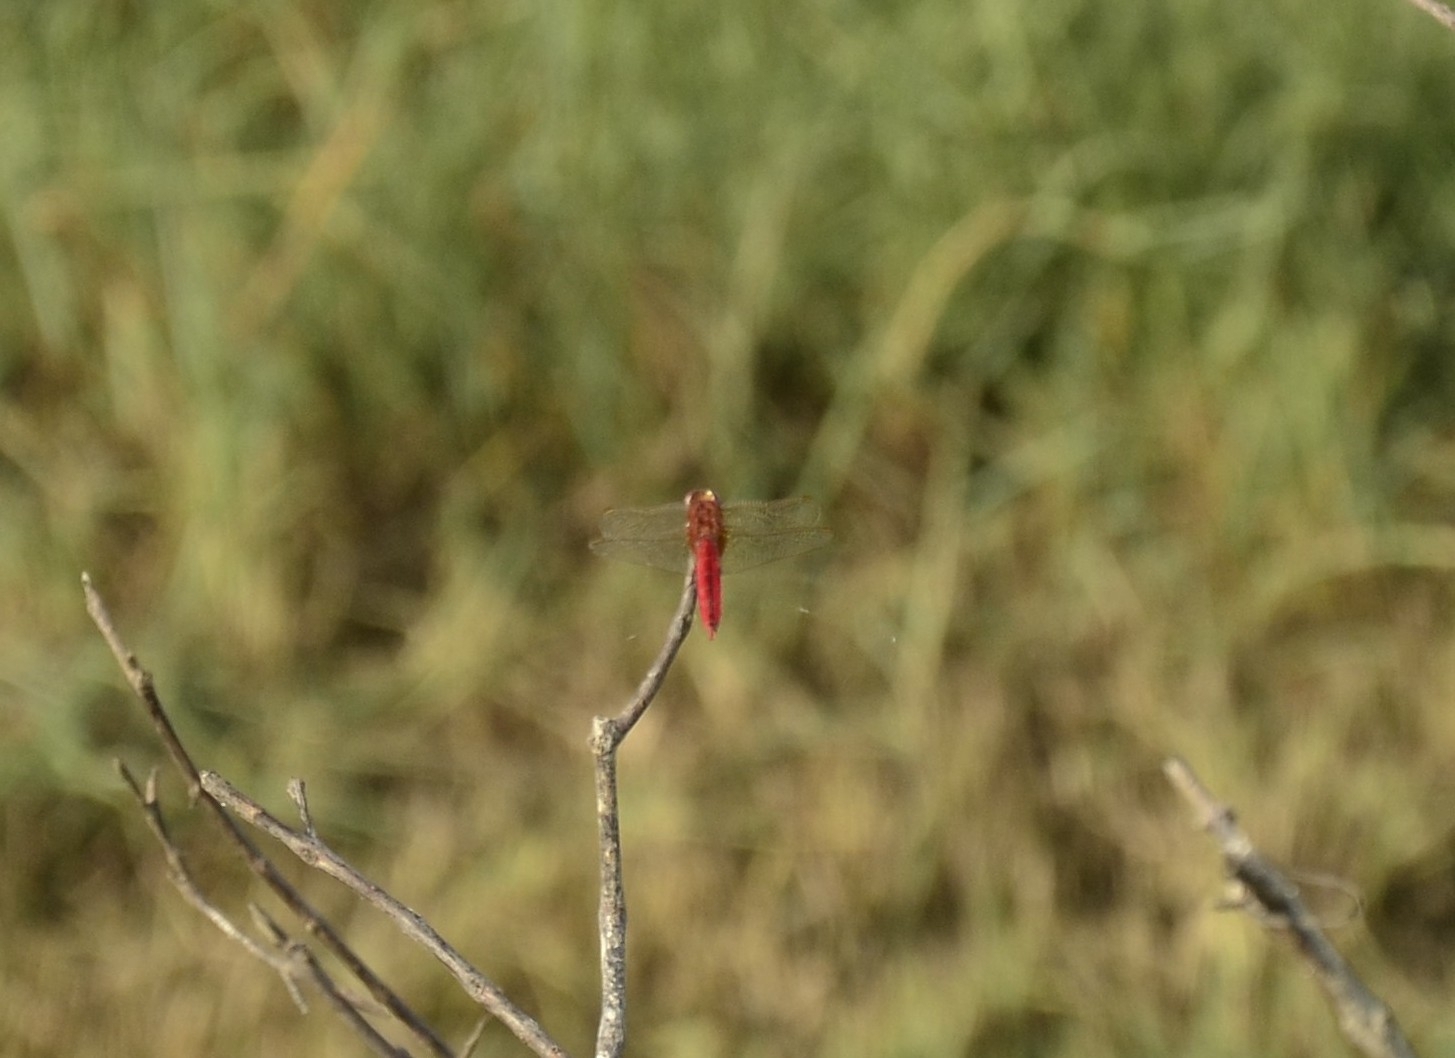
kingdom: Animalia
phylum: Arthropoda
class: Insecta
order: Odonata
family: Libellulidae
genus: Crocothemis
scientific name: Crocothemis servilia
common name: Scarlet skimmer
